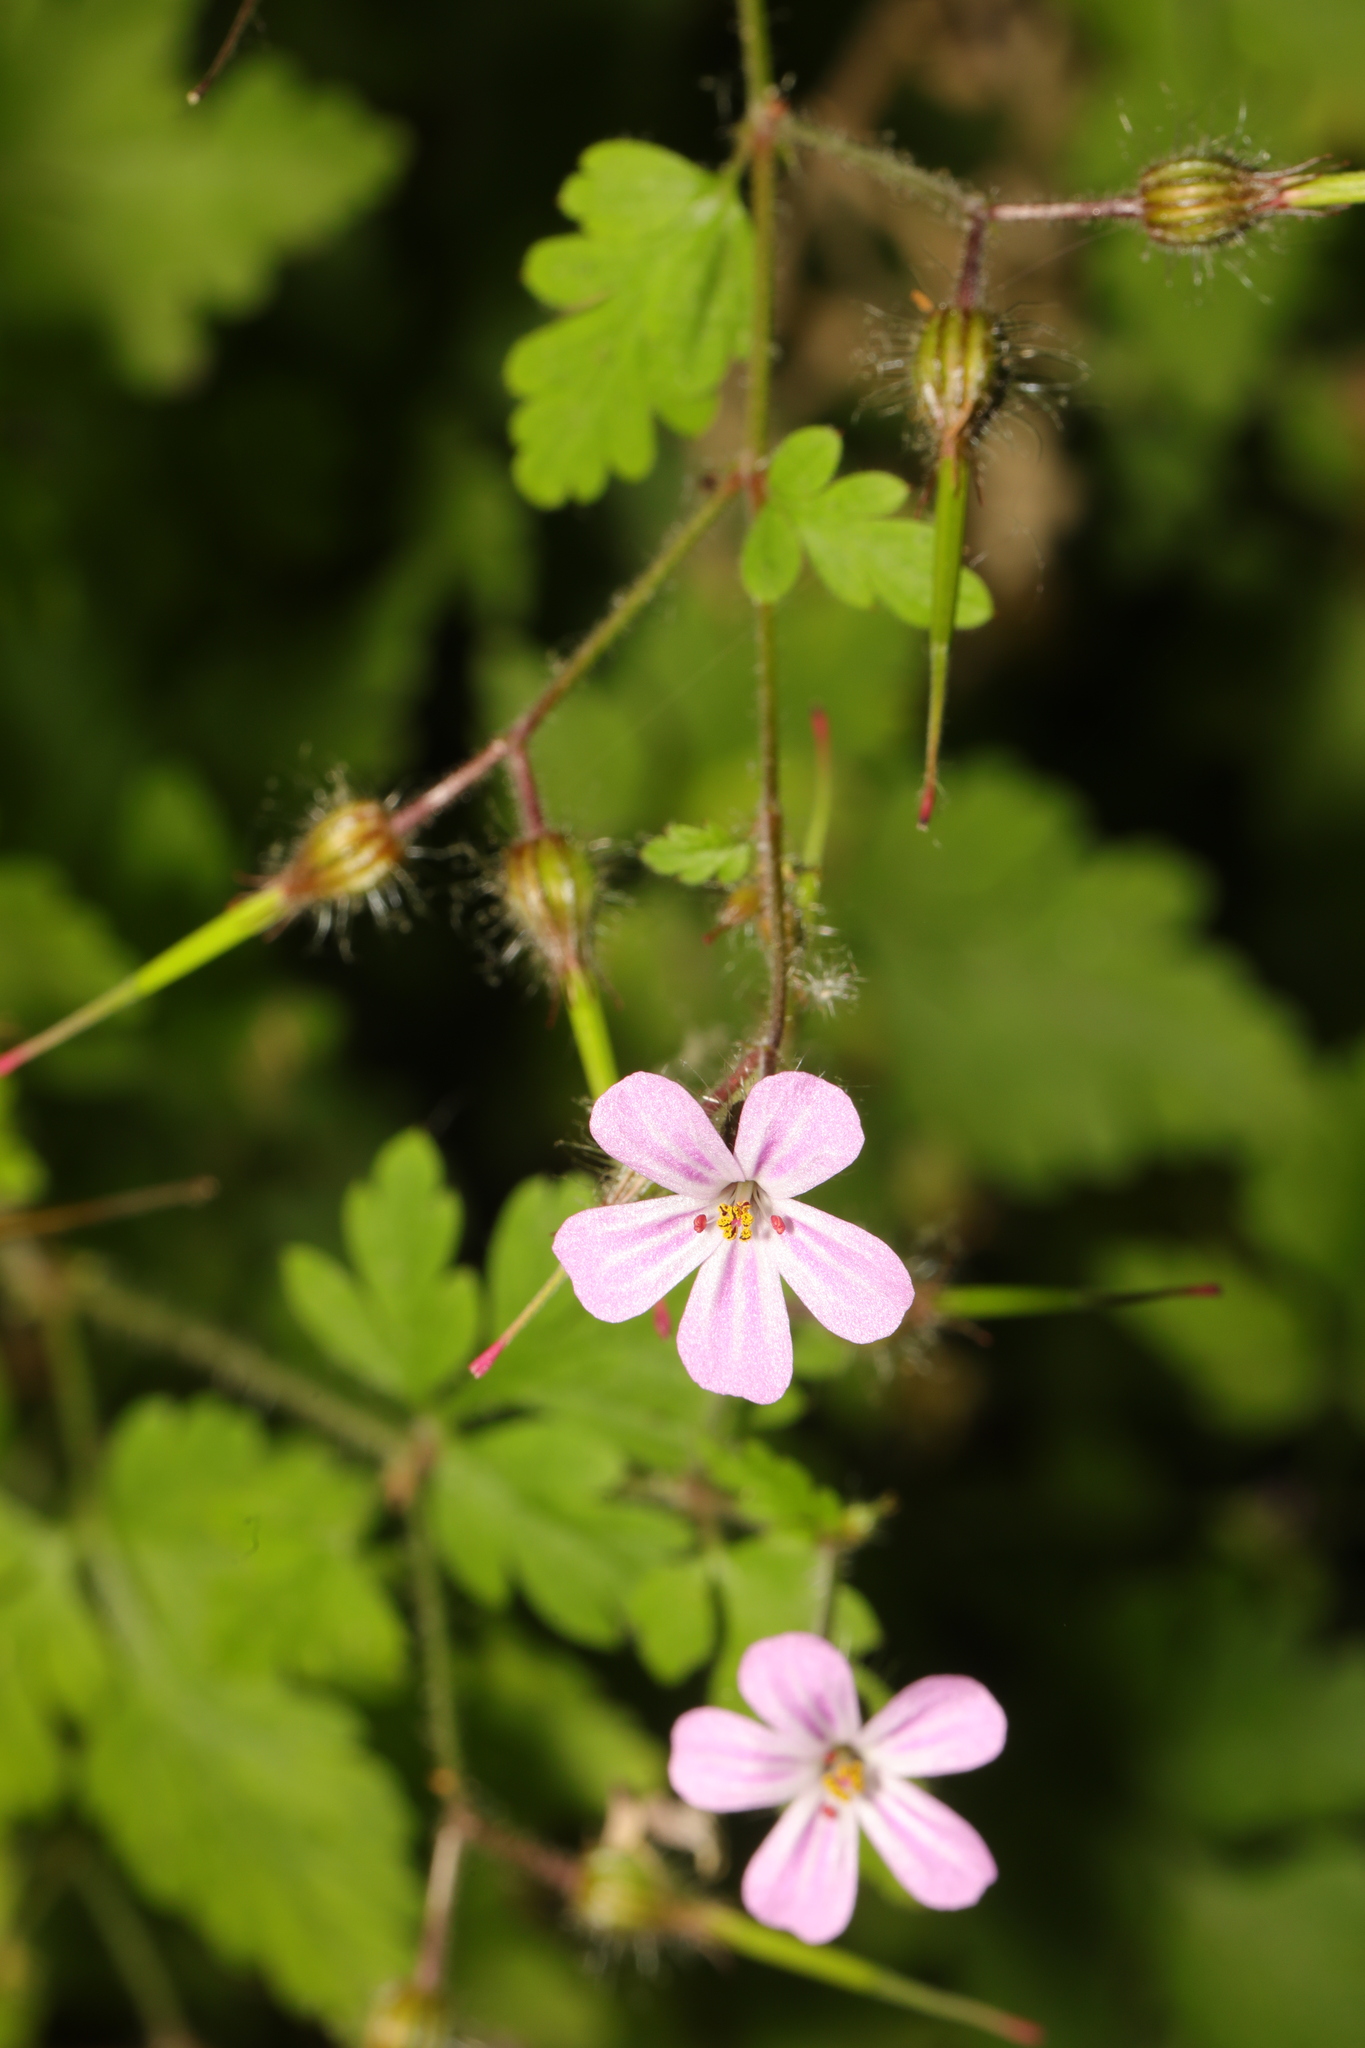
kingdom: Plantae
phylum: Tracheophyta
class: Magnoliopsida
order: Geraniales
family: Geraniaceae
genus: Geranium
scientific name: Geranium robertianum
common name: Herb-robert
